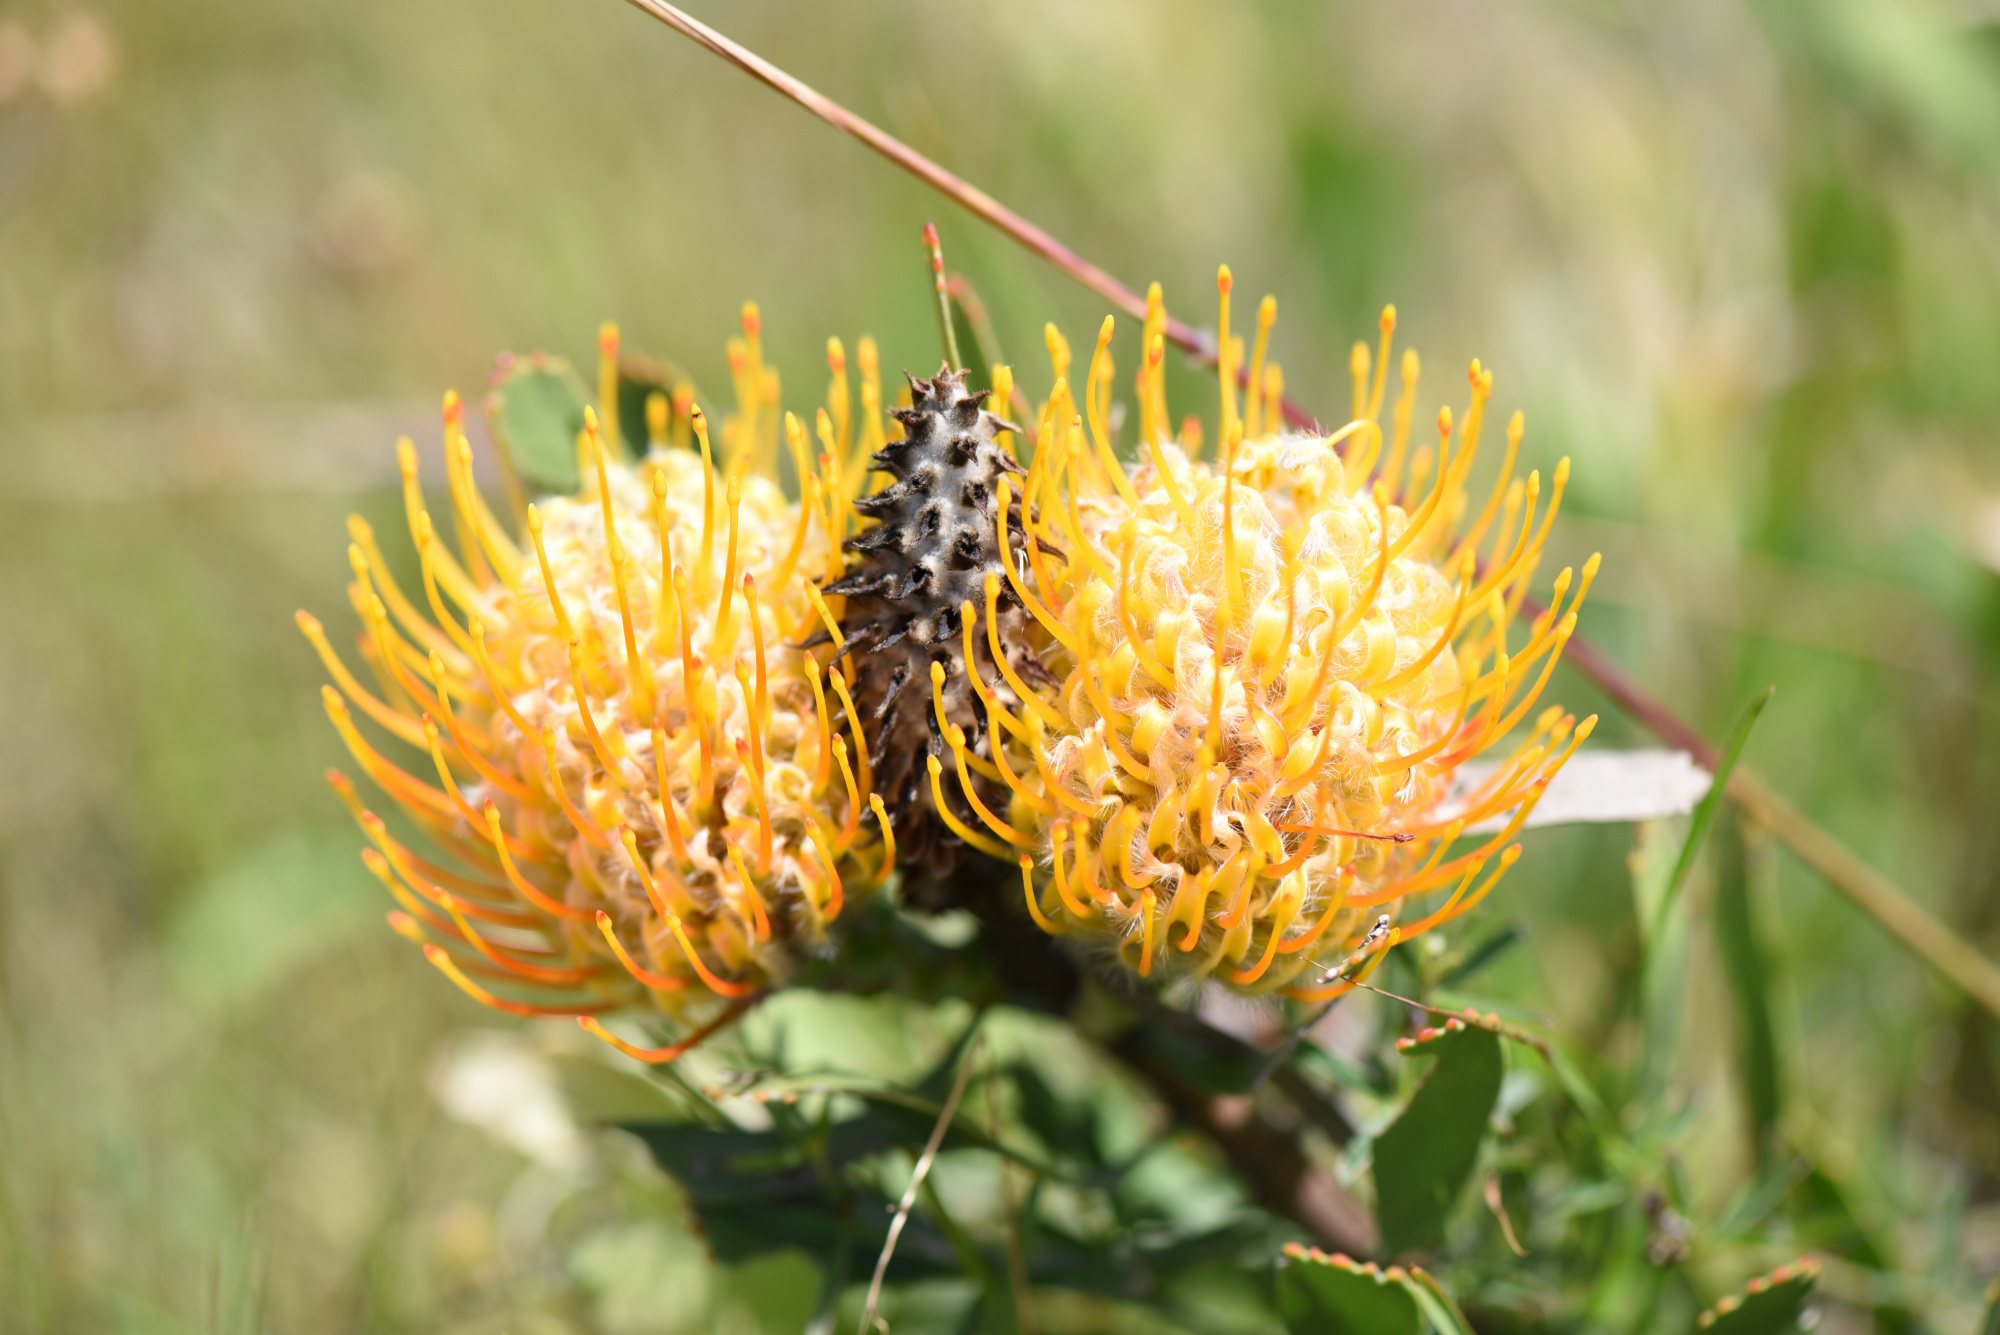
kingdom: Plantae
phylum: Tracheophyta
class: Magnoliopsida
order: Proteales
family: Proteaceae
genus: Leucospermum
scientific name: Leucospermum cuneiforme
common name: Common pincushion
